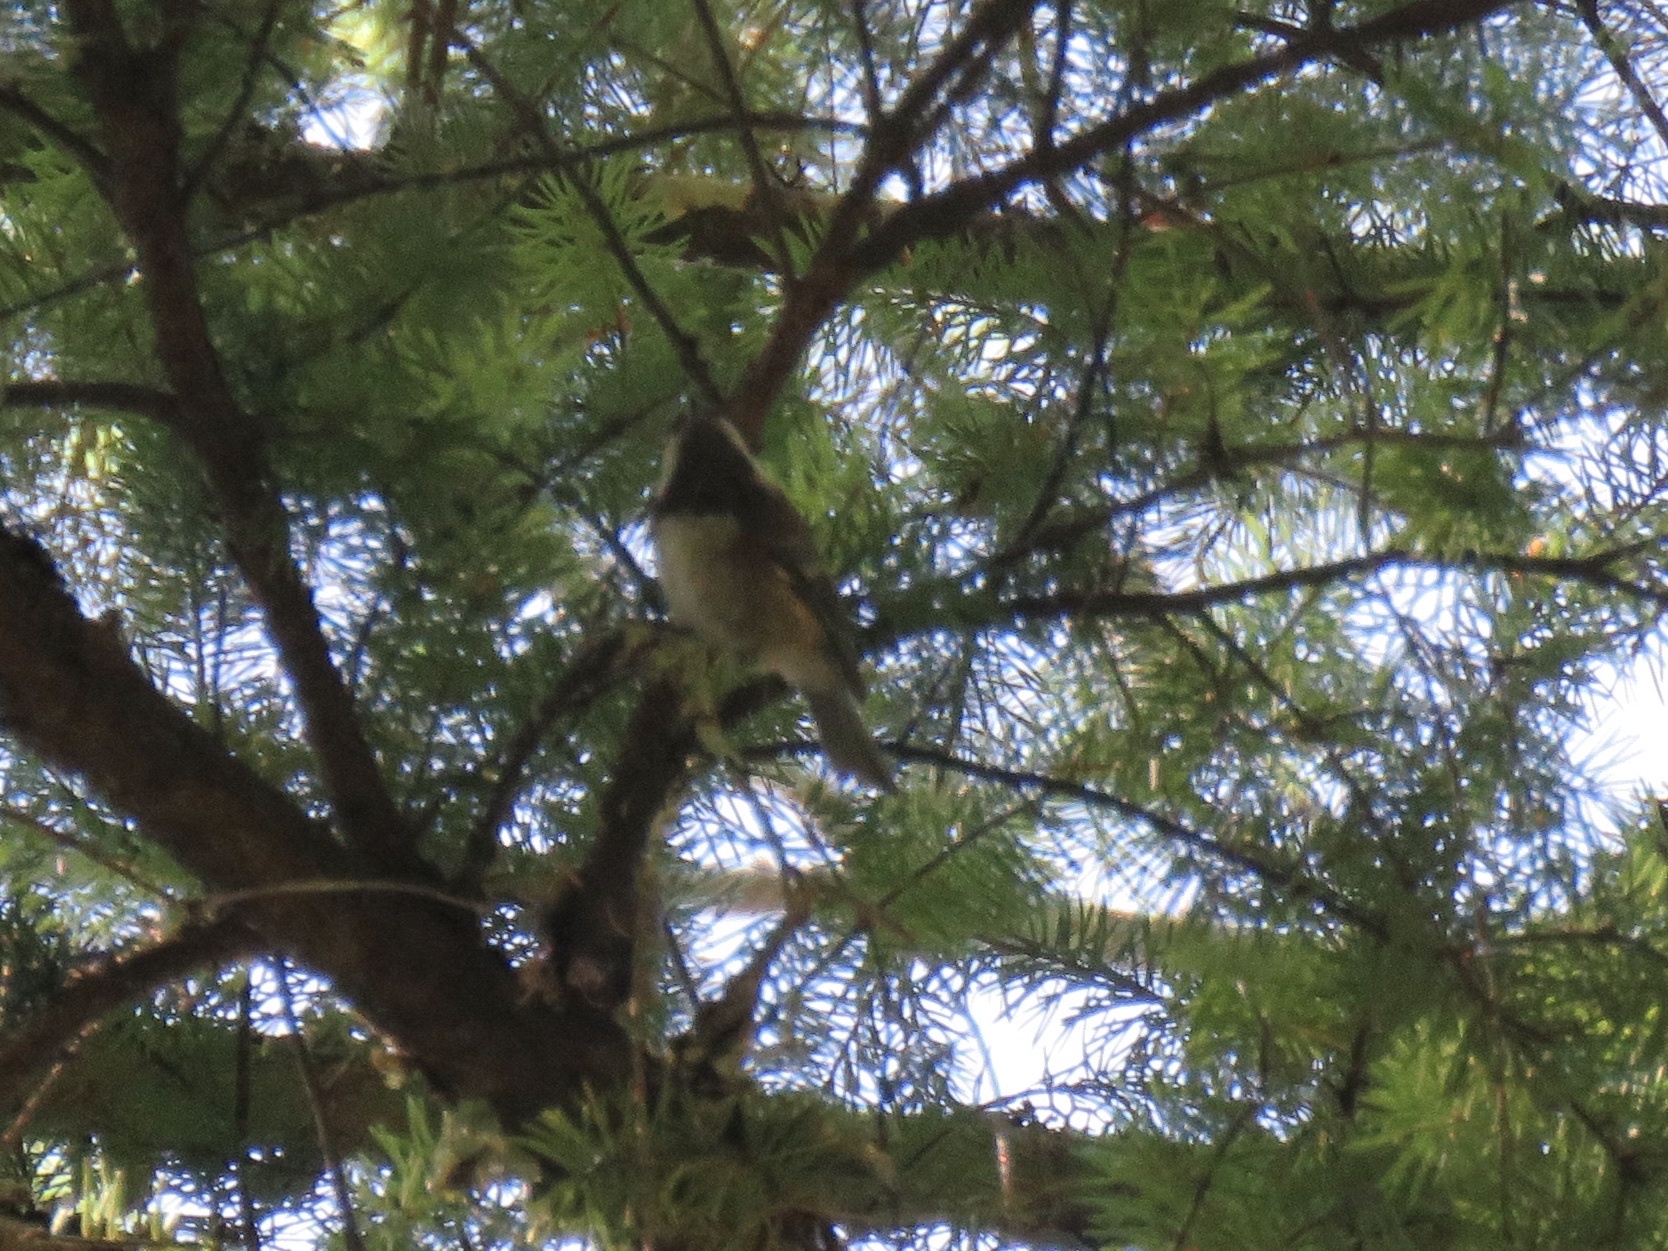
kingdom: Animalia
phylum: Chordata
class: Aves
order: Passeriformes
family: Paridae
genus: Poecile
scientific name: Poecile rufescens
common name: Chestnut-backed chickadee
